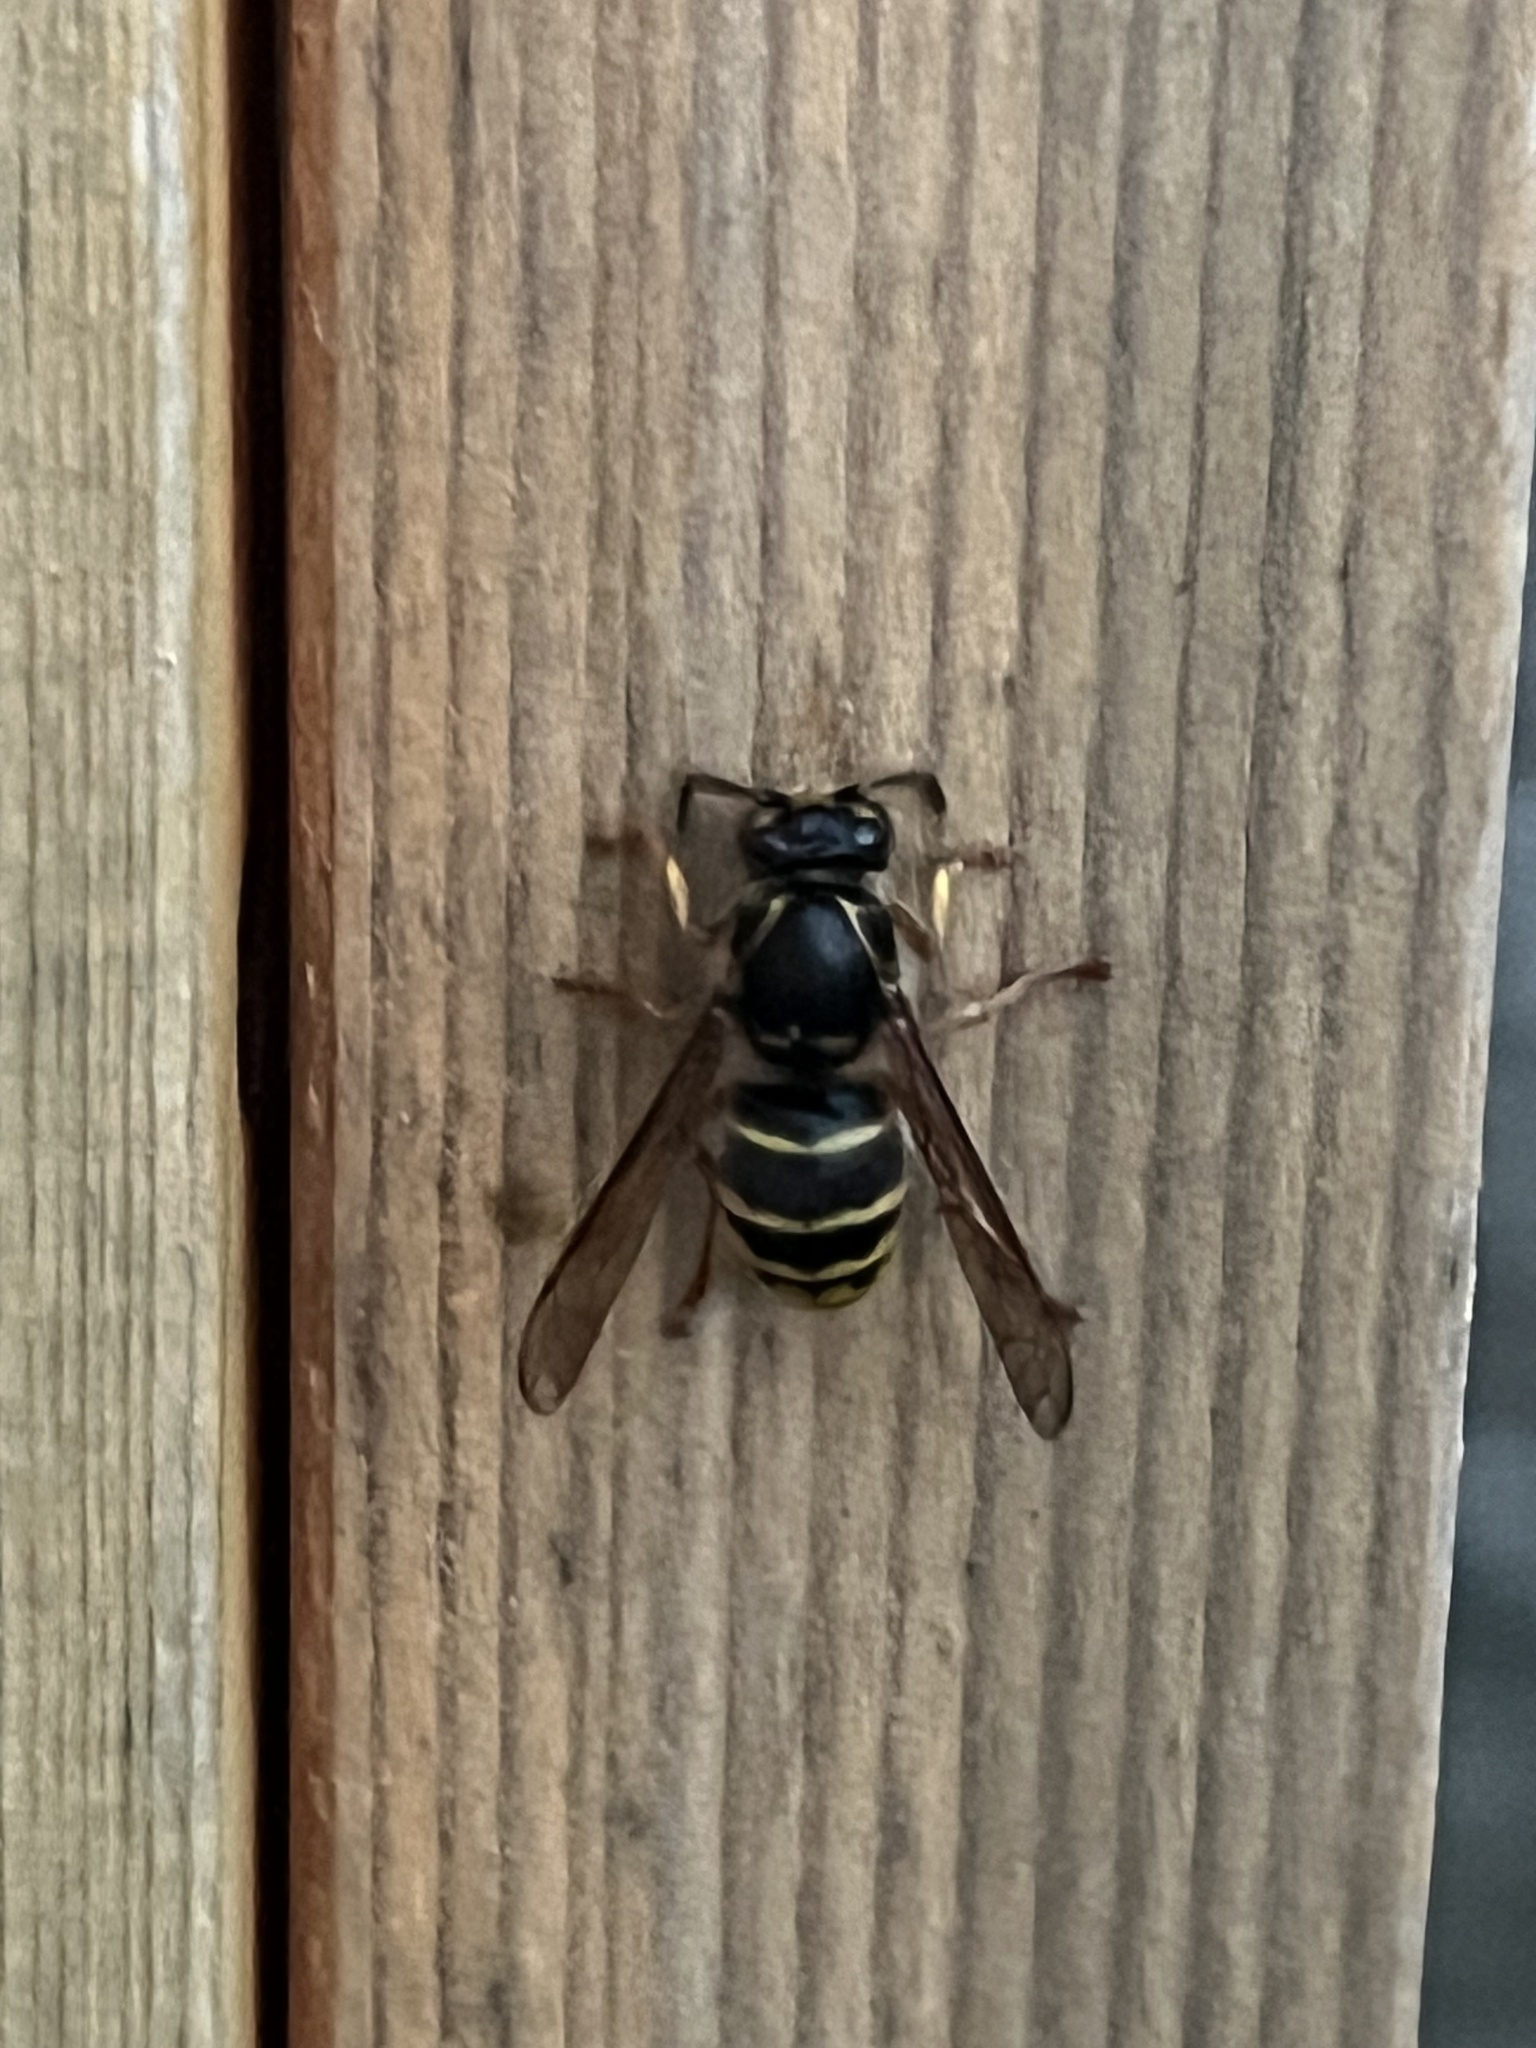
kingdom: Animalia
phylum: Arthropoda
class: Insecta
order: Hymenoptera
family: Vespidae
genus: Dolichovespula
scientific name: Dolichovespula media
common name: Median wasp
